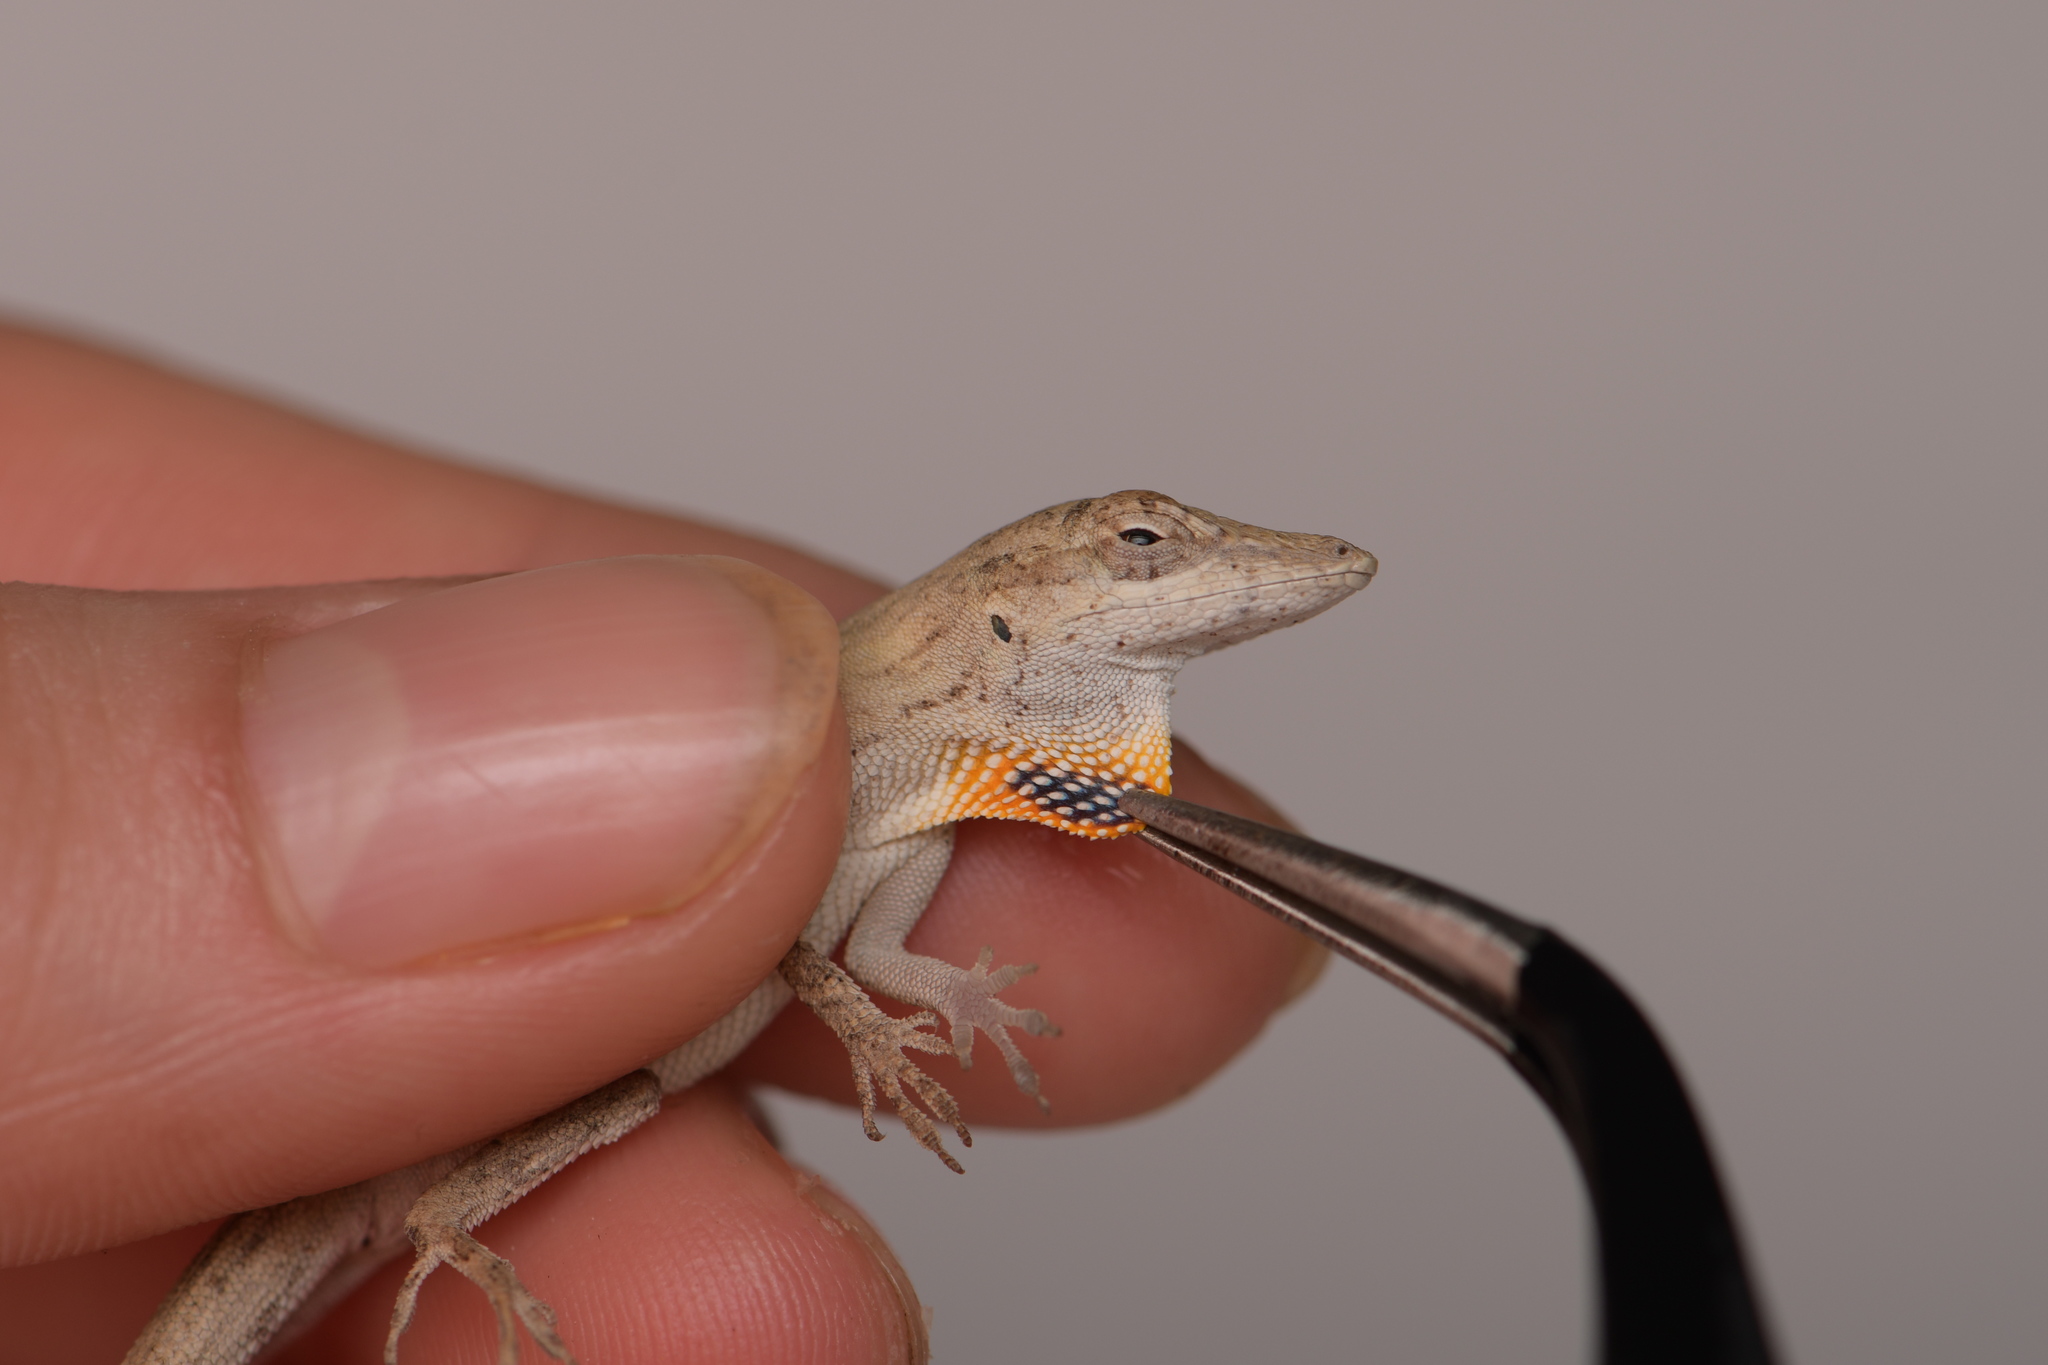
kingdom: Animalia
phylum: Chordata
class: Squamata
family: Dactyloidae
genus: Anolis
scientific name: Anolis unilobatus
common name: Blue-spotted fan anole
